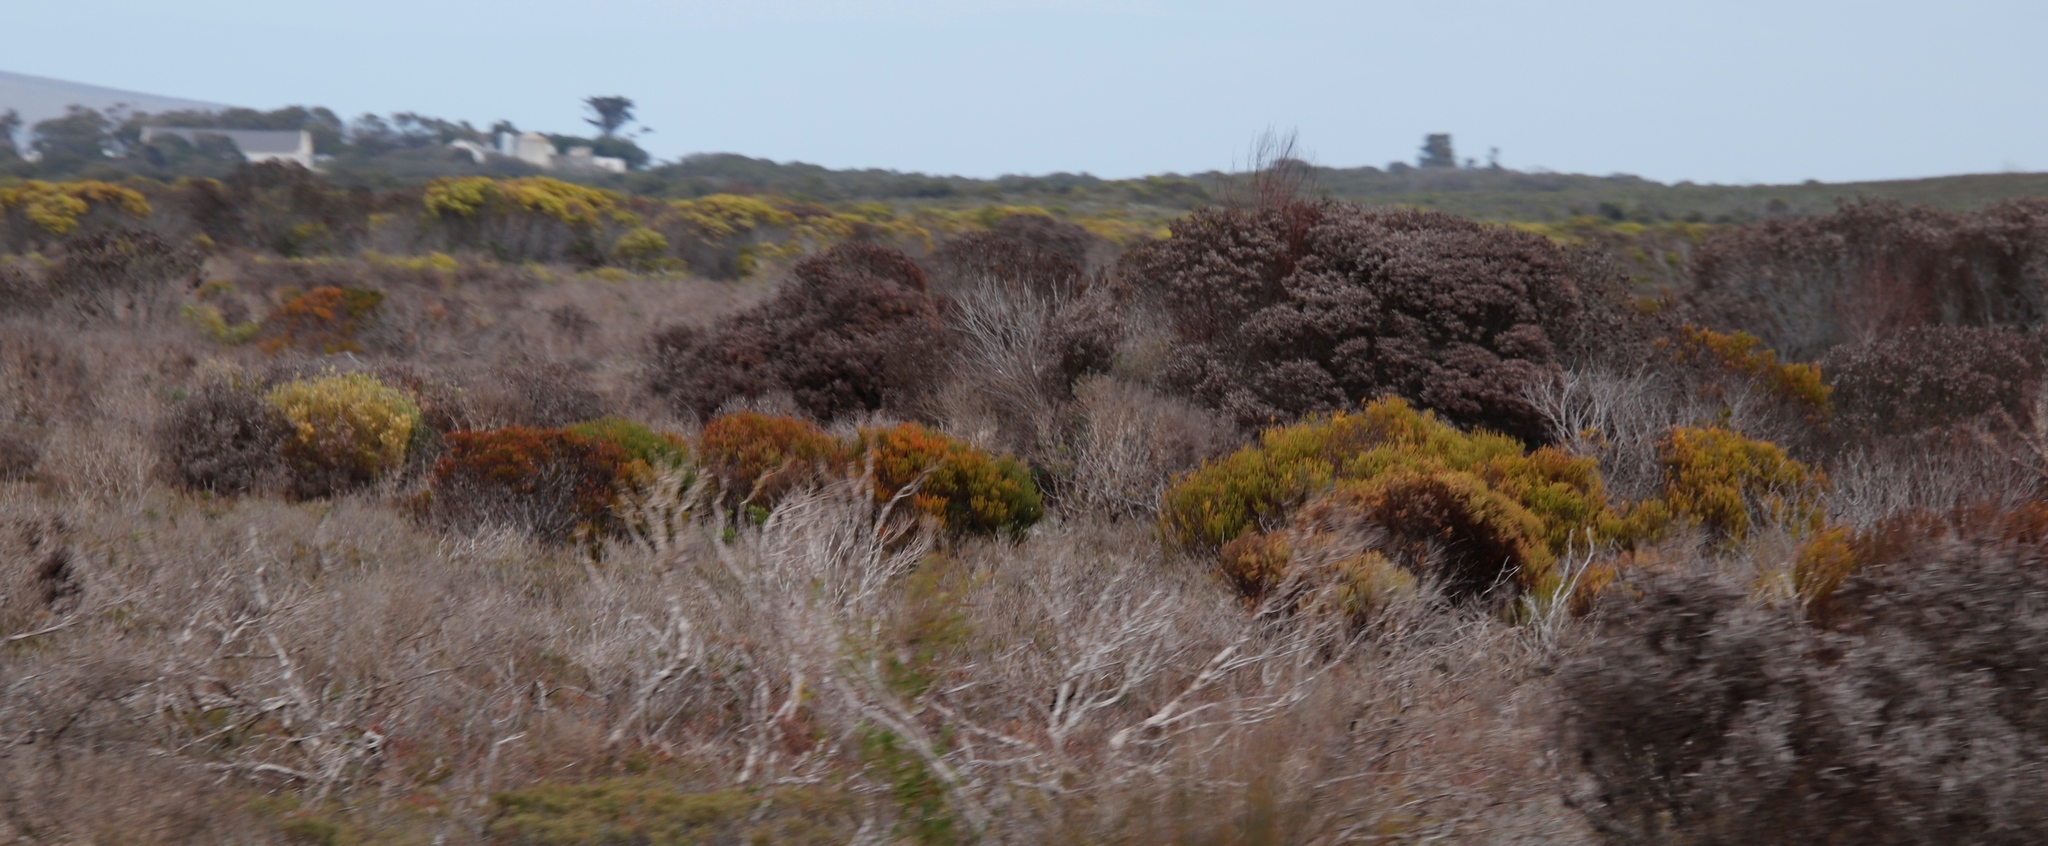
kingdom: Plantae
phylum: Tracheophyta
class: Magnoliopsida
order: Proteales
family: Proteaceae
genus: Leucadendron
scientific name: Leucadendron linifolium
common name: Line-leaf conebush
